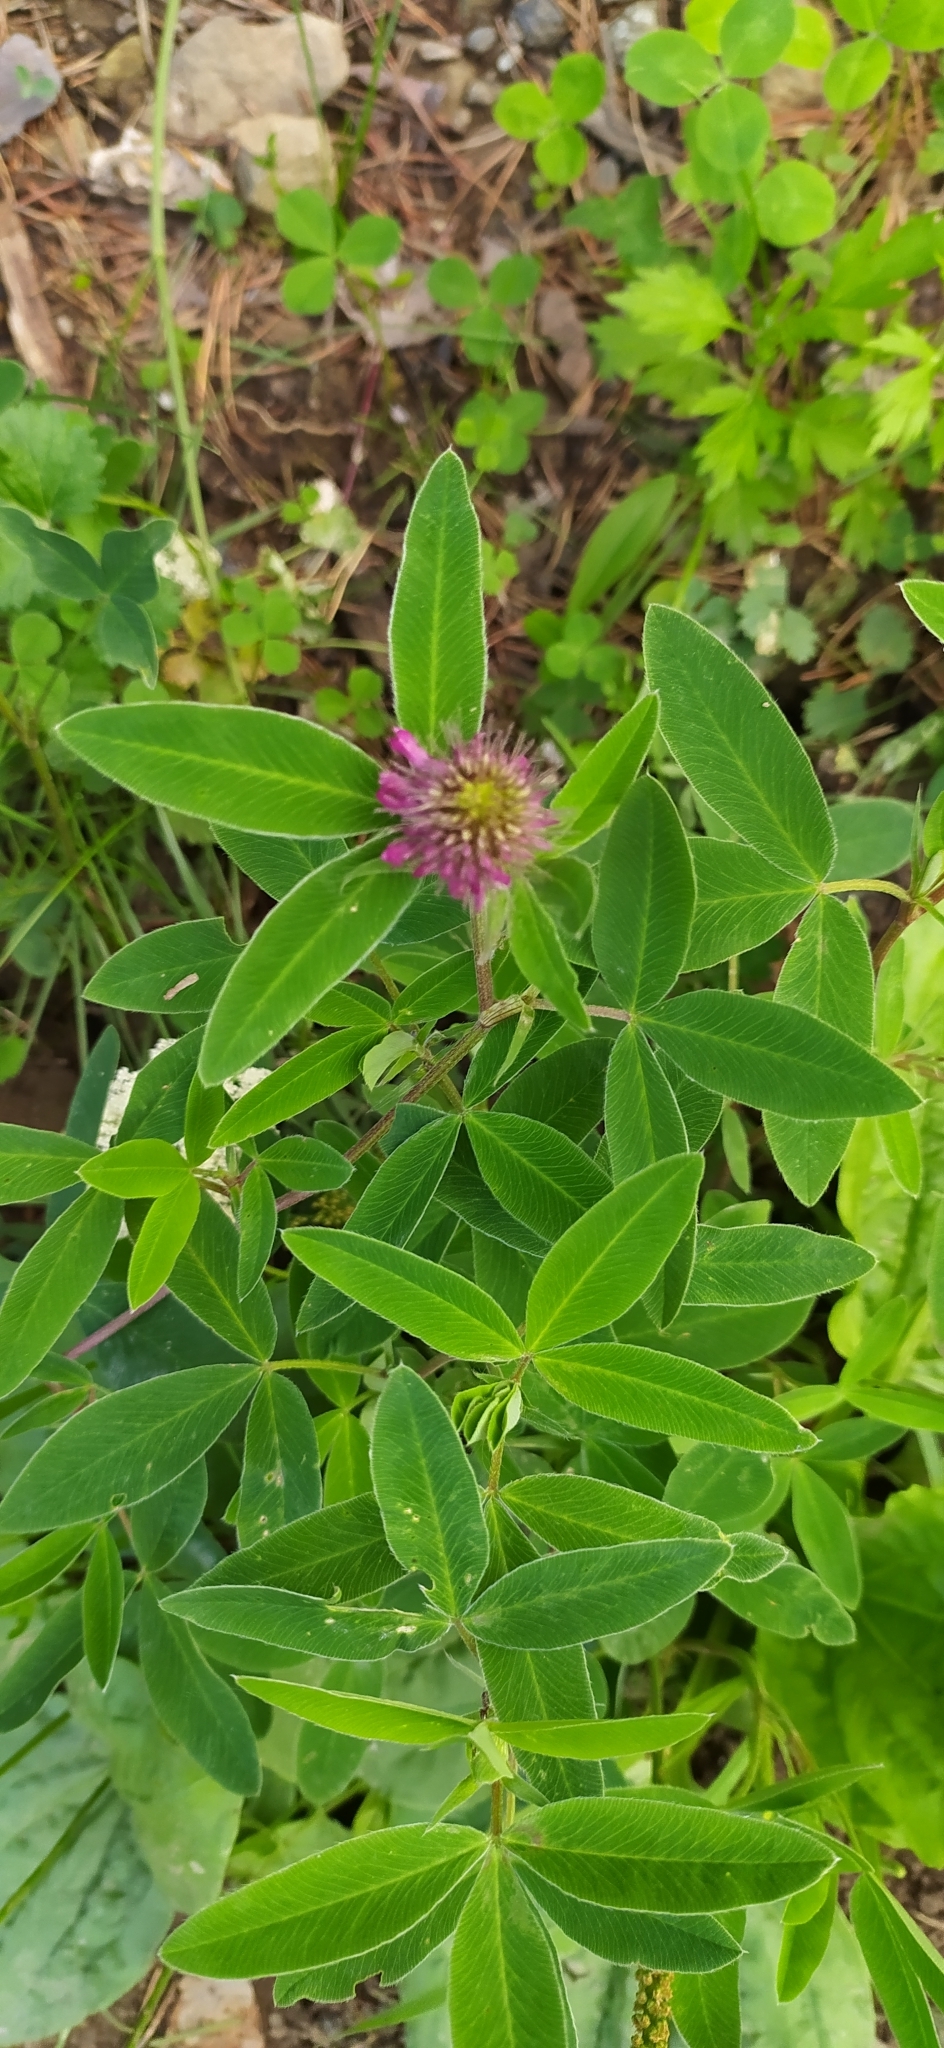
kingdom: Plantae
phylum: Tracheophyta
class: Magnoliopsida
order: Fabales
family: Fabaceae
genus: Trifolium
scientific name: Trifolium medium
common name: Zigzag clover
